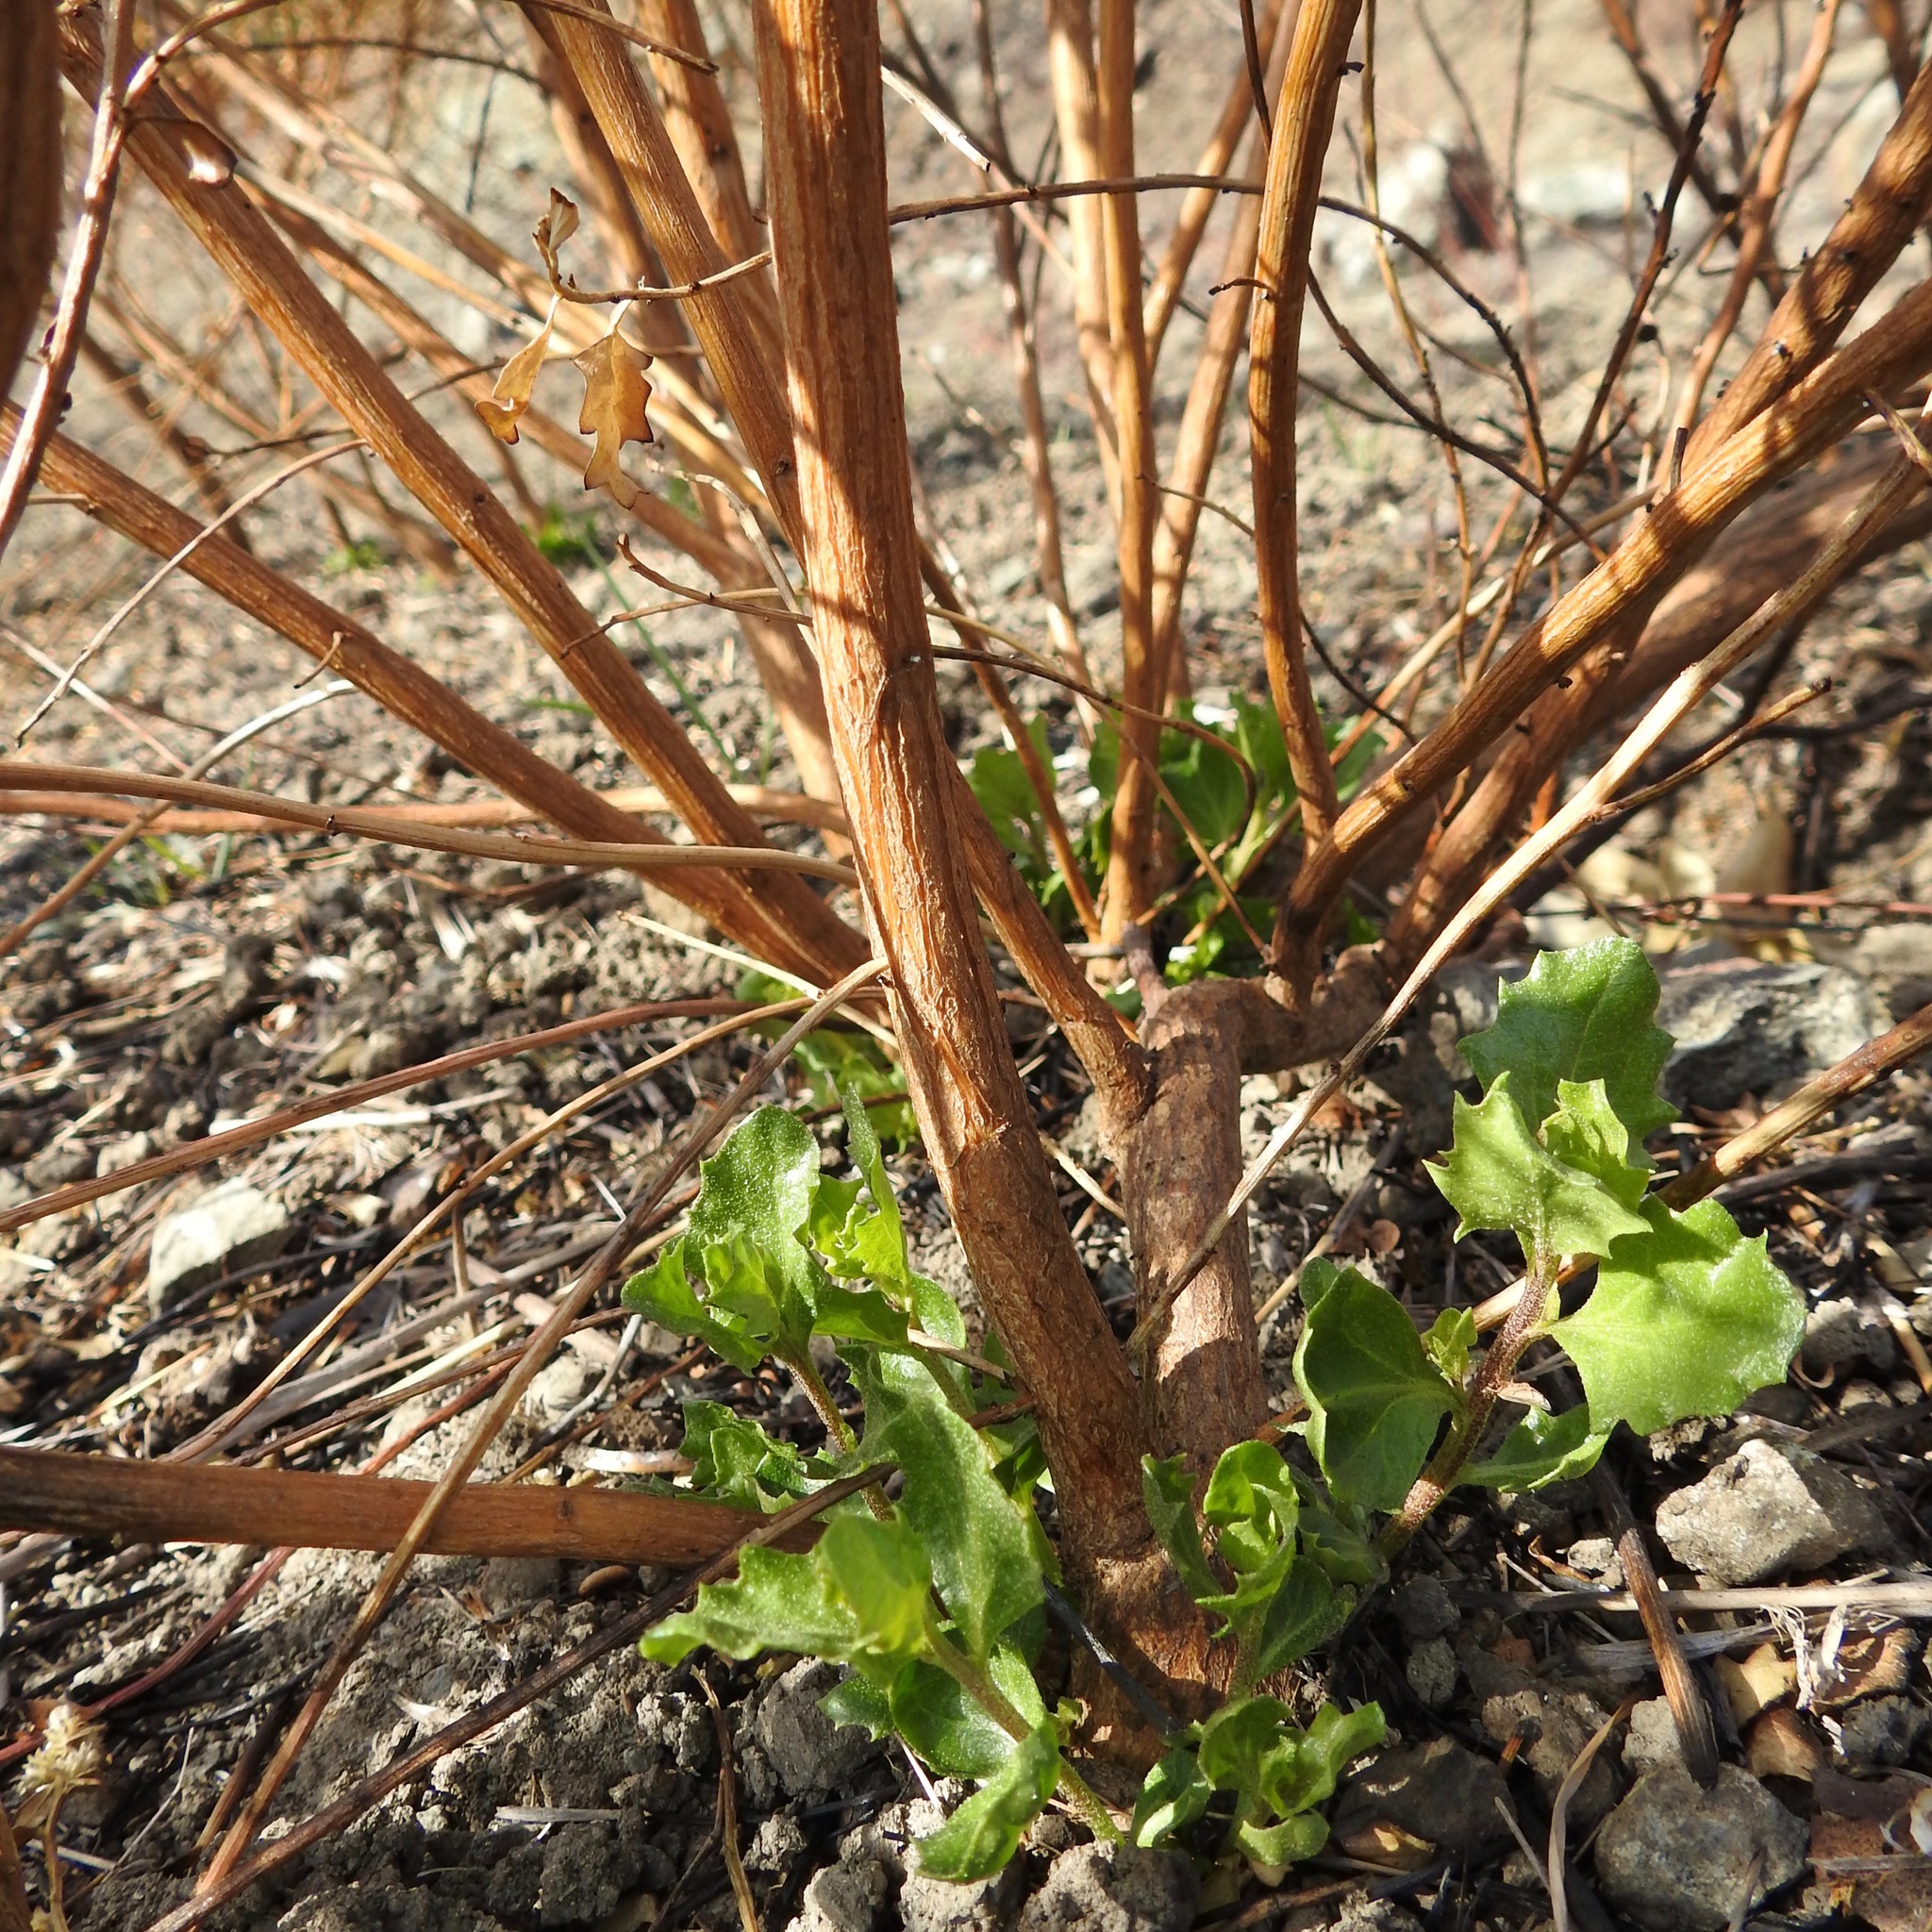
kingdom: Plantae
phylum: Tracheophyta
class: Magnoliopsida
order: Asterales
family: Asteraceae
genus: Baccharis
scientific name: Baccharis pilularis
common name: Coyotebrush
